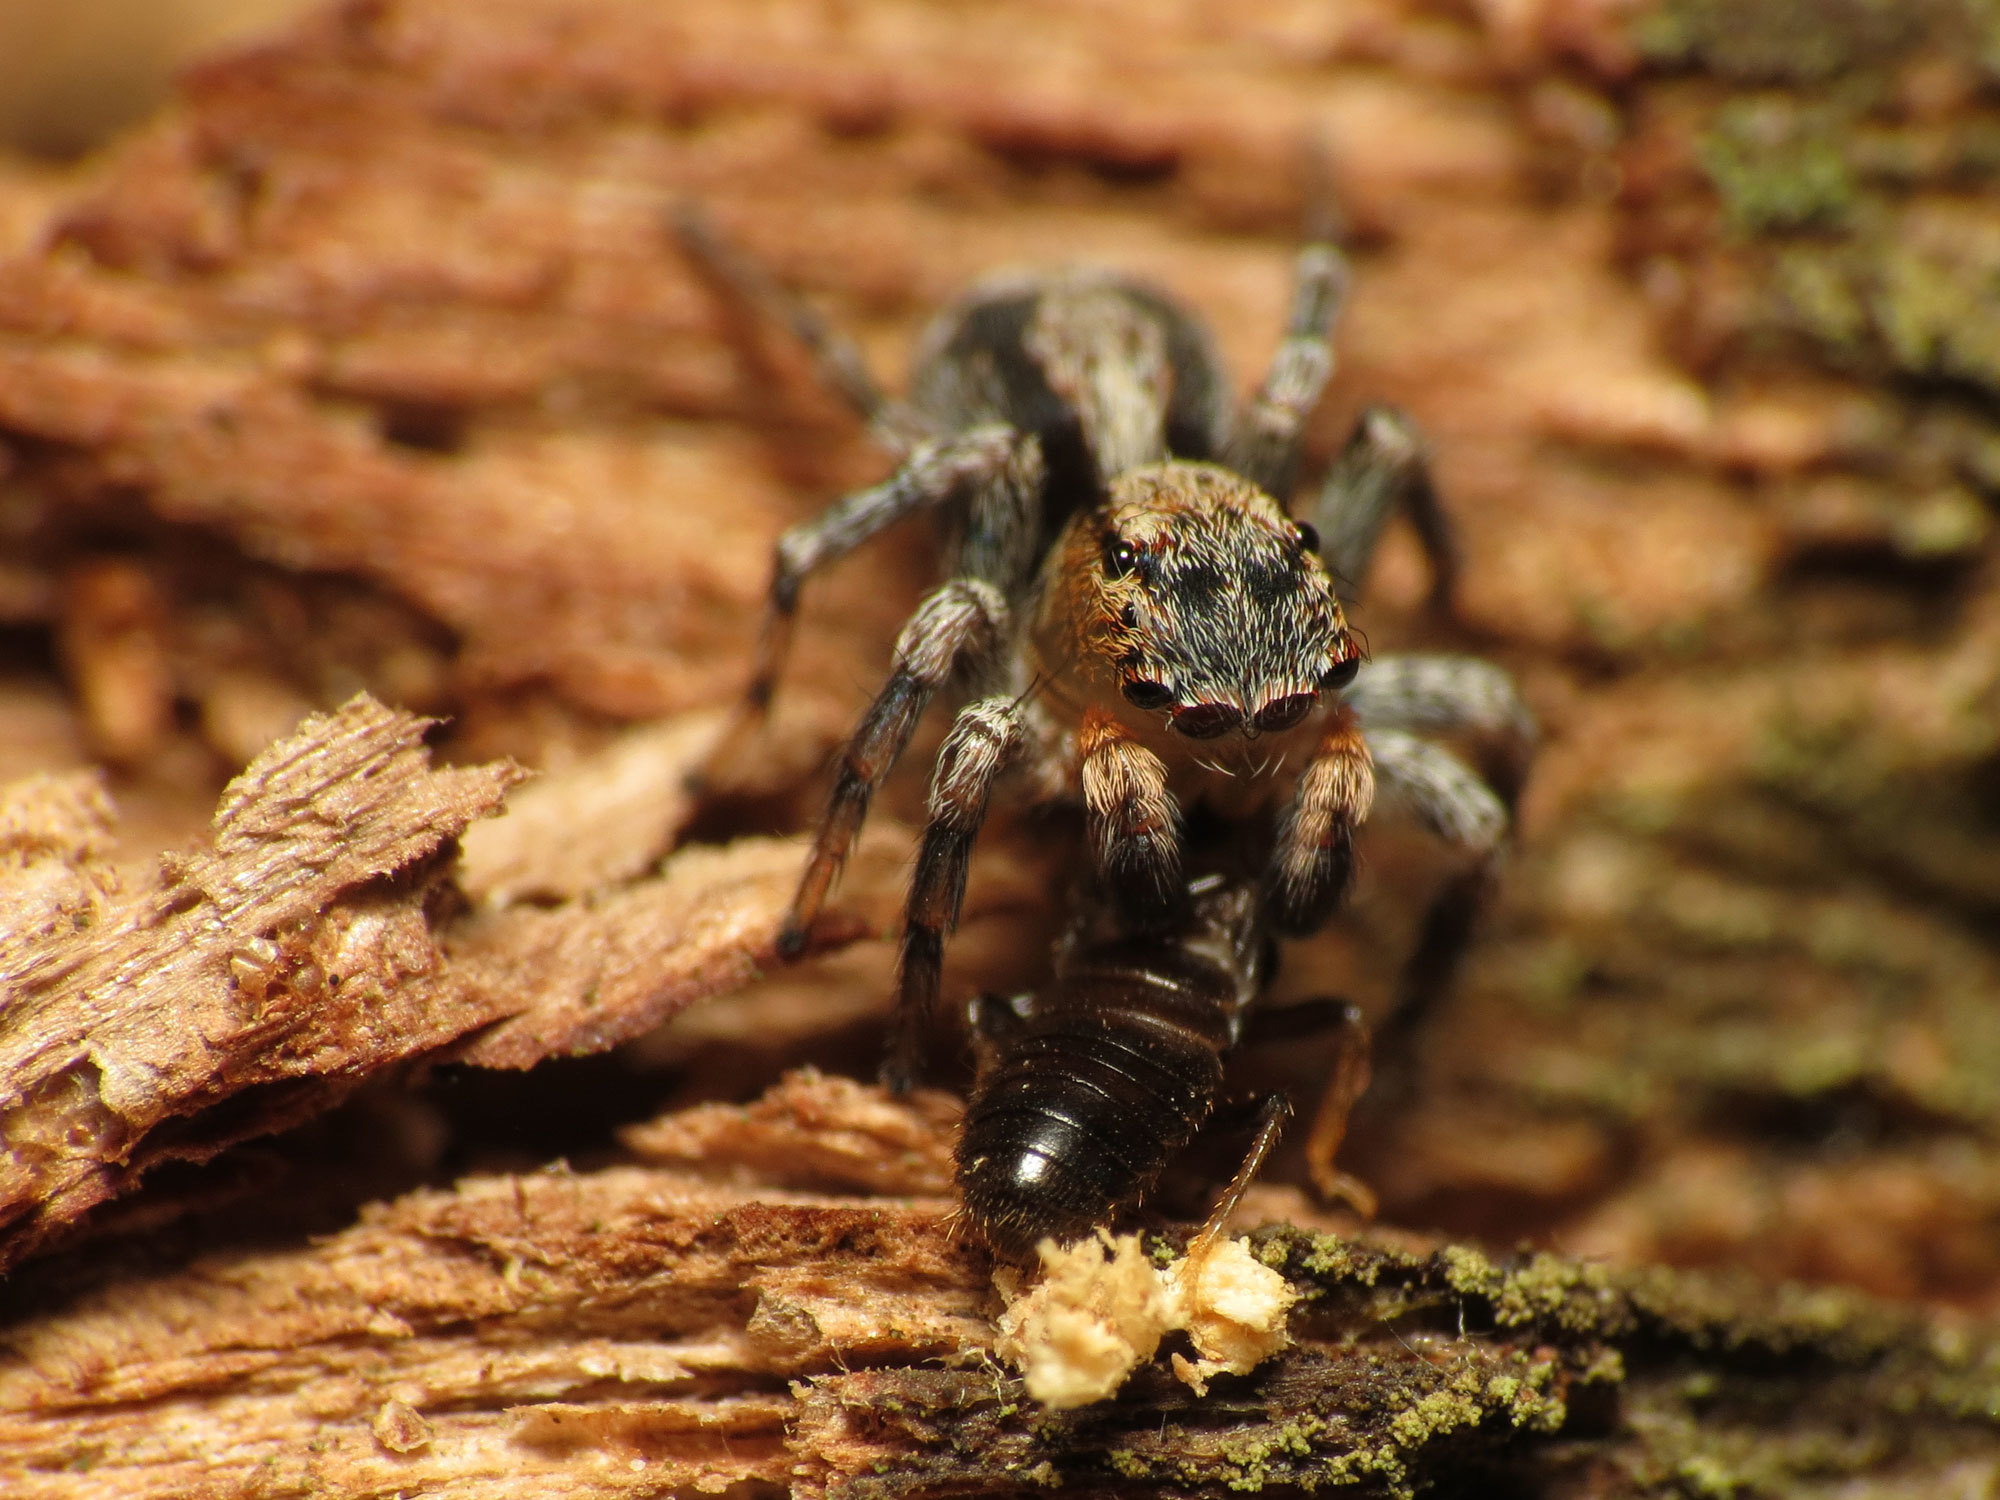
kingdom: Animalia
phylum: Arthropoda
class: Arachnida
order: Araneae
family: Salticidae
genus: Naphrys
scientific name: Naphrys pulex
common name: Flea jumping spider
